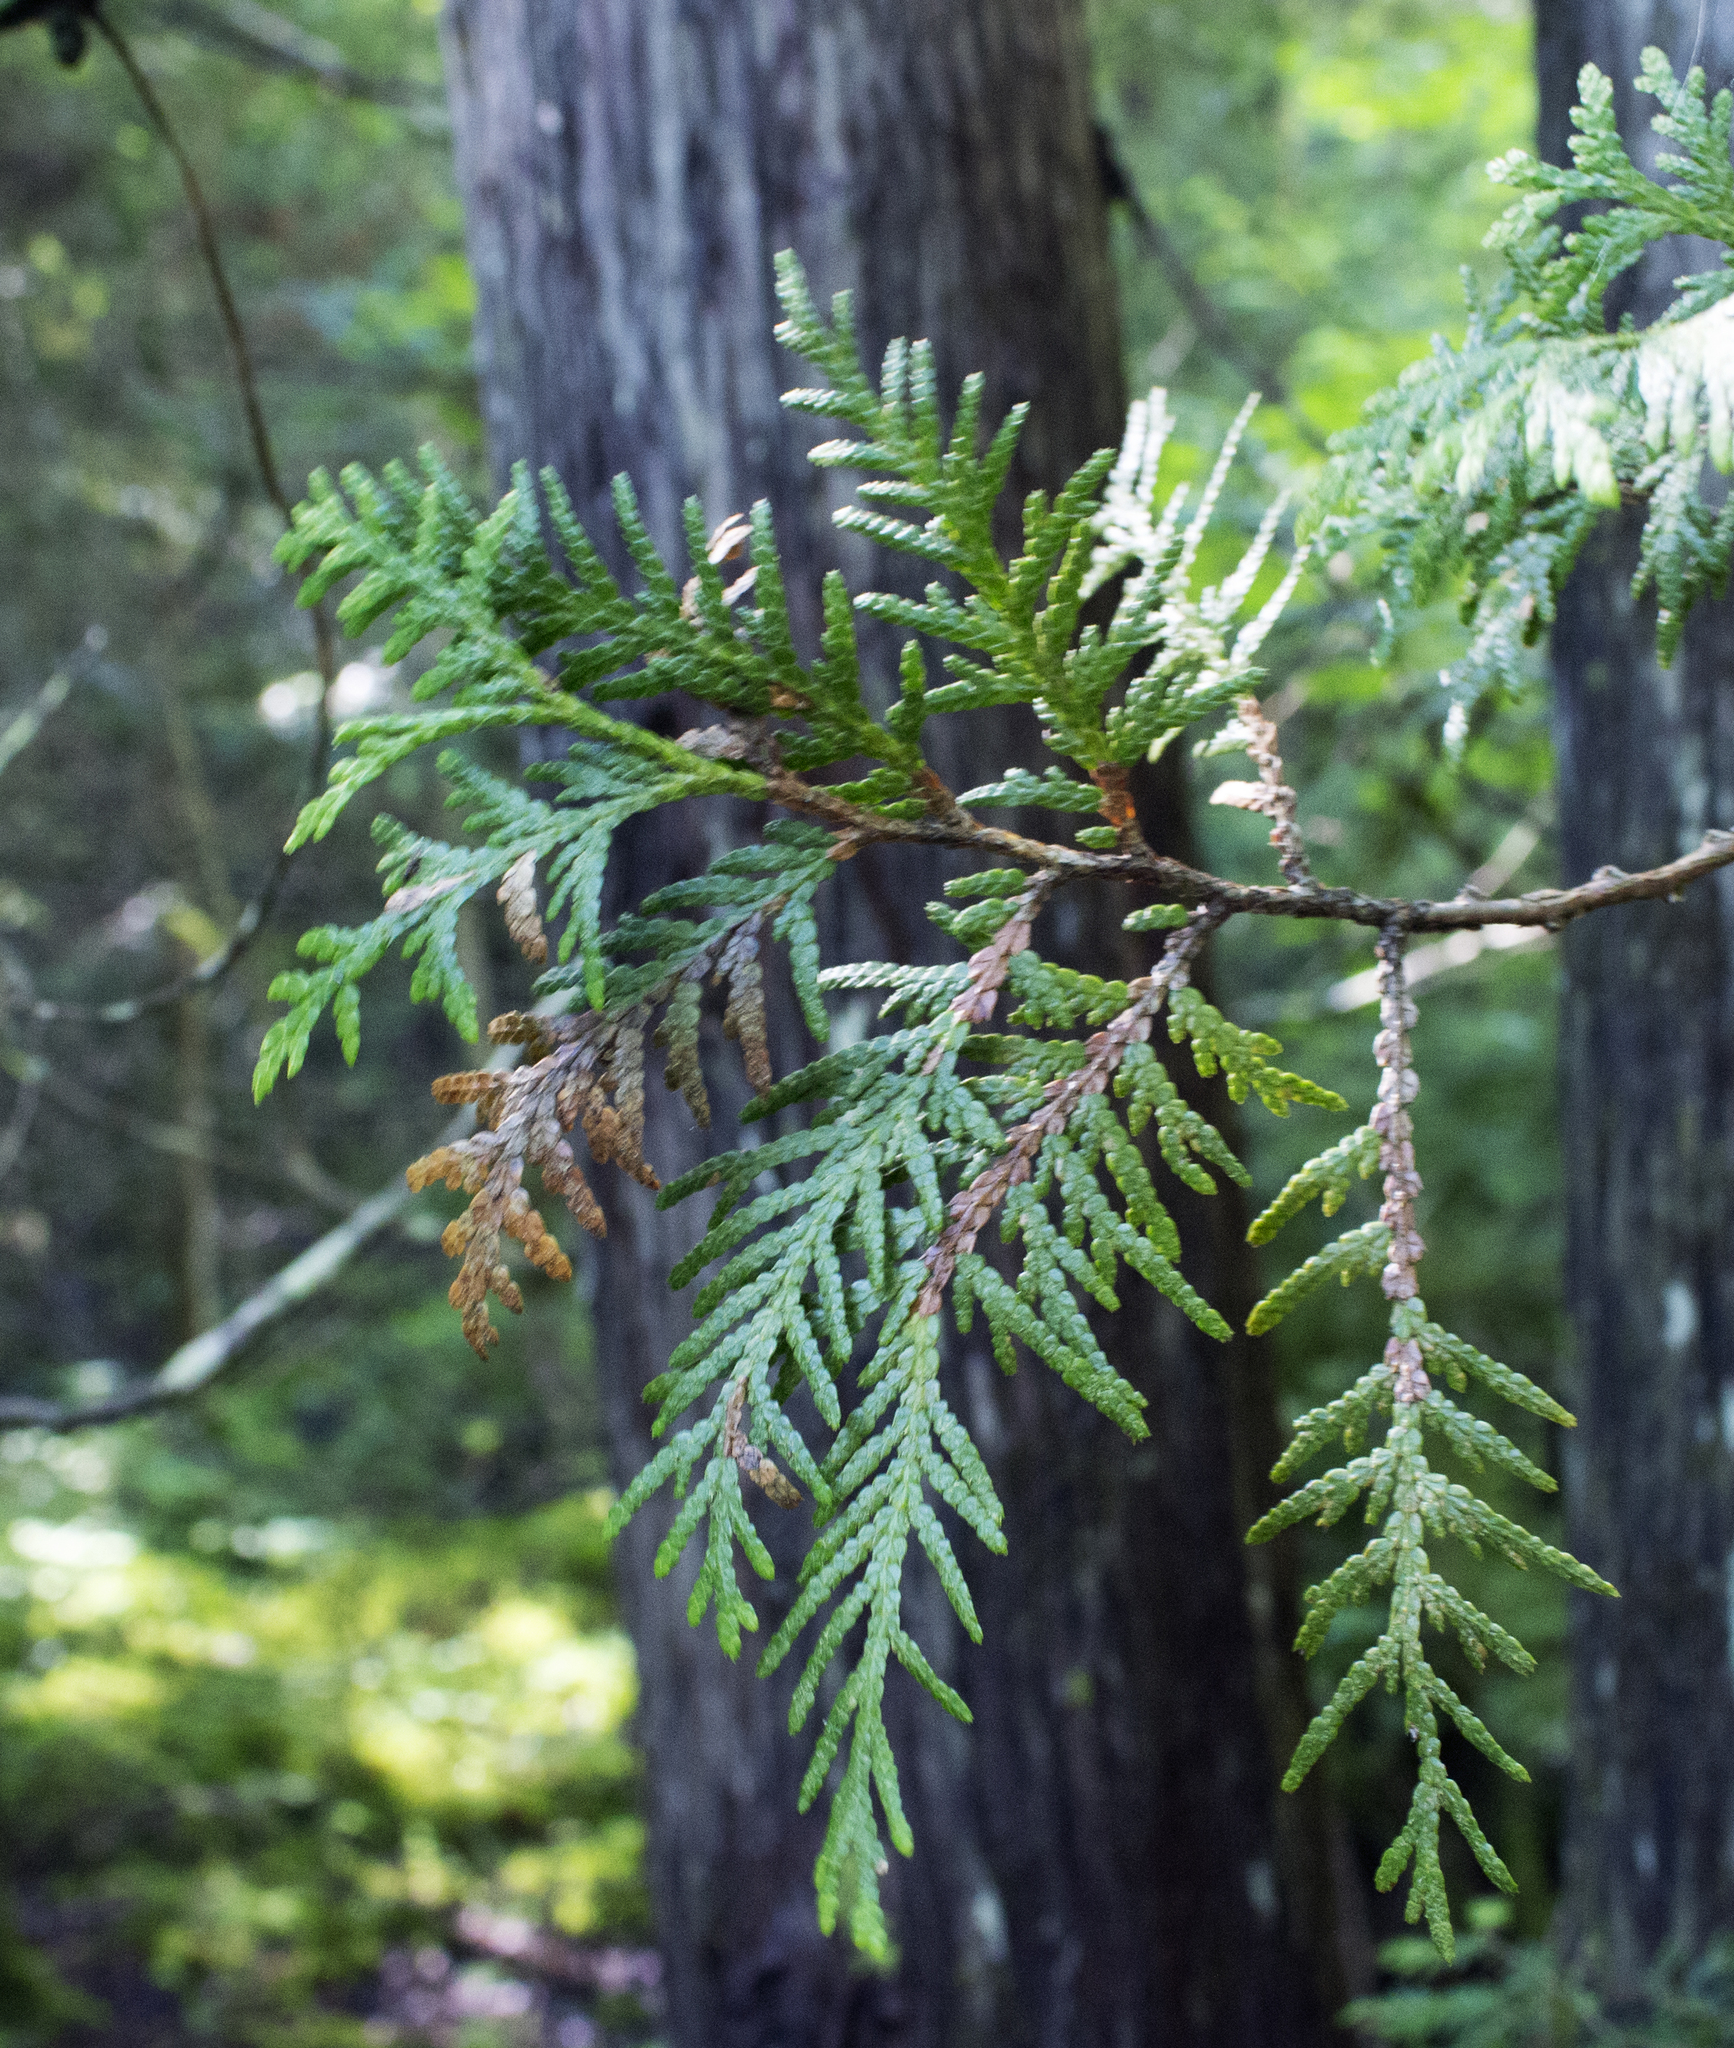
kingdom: Plantae
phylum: Tracheophyta
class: Pinopsida
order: Pinales
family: Cupressaceae
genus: Thuja
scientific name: Thuja occidentalis
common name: Northern white-cedar
